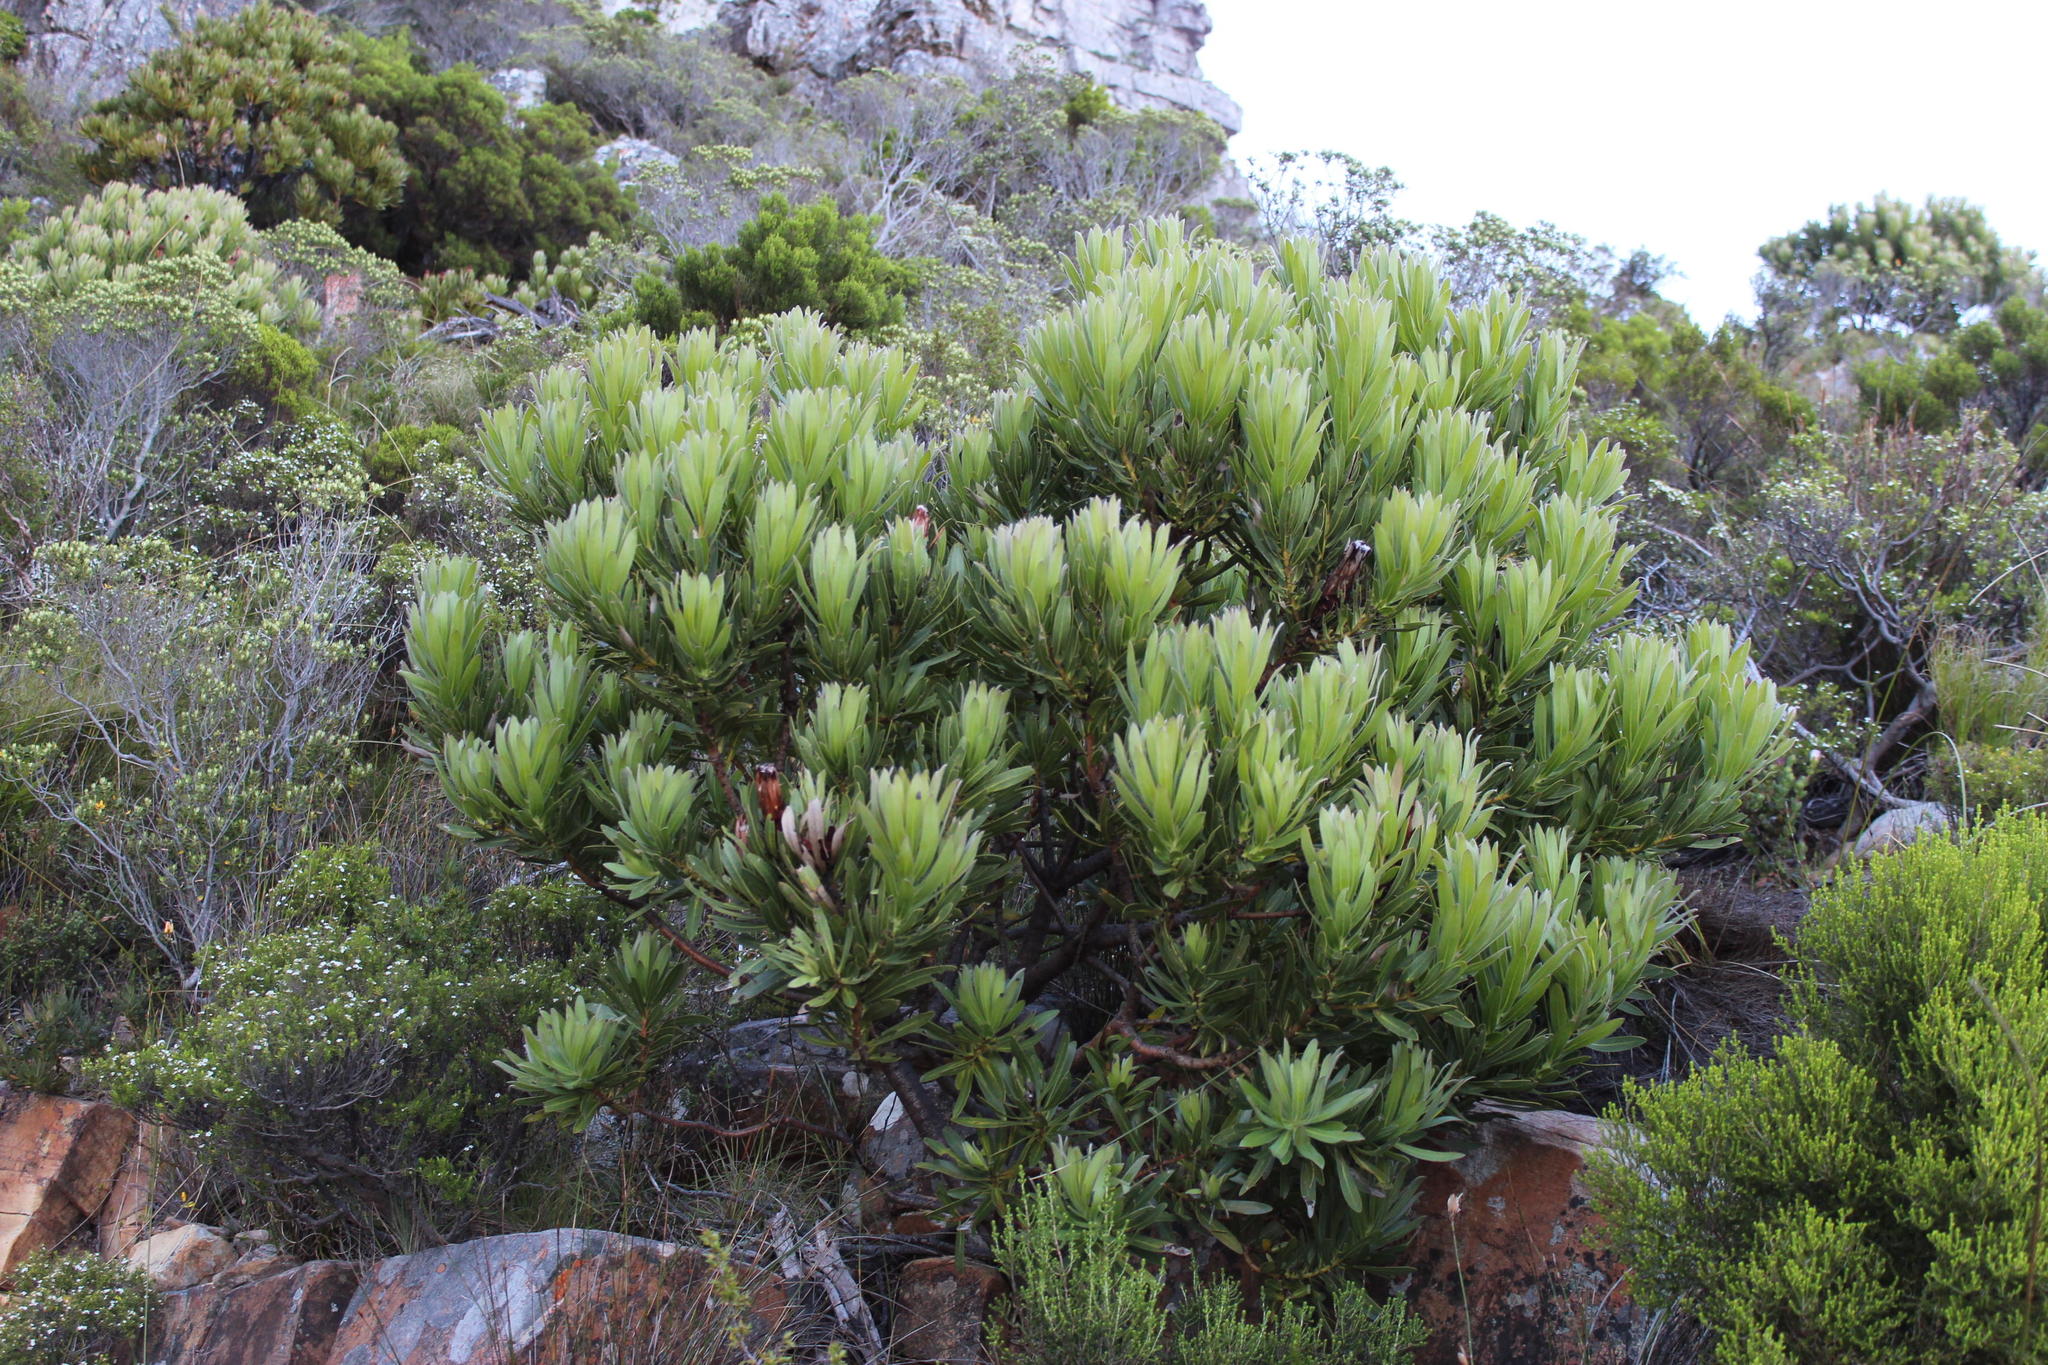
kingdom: Plantae
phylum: Tracheophyta
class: Magnoliopsida
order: Proteales
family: Proteaceae
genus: Protea
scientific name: Protea lepidocarpodendron
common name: Black-bearded protea
